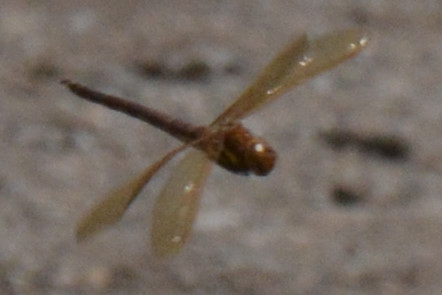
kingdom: Animalia
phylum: Arthropoda
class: Insecta
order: Odonata
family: Aeshnidae
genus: Aeshna
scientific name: Aeshna grandis
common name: Brown hawker
